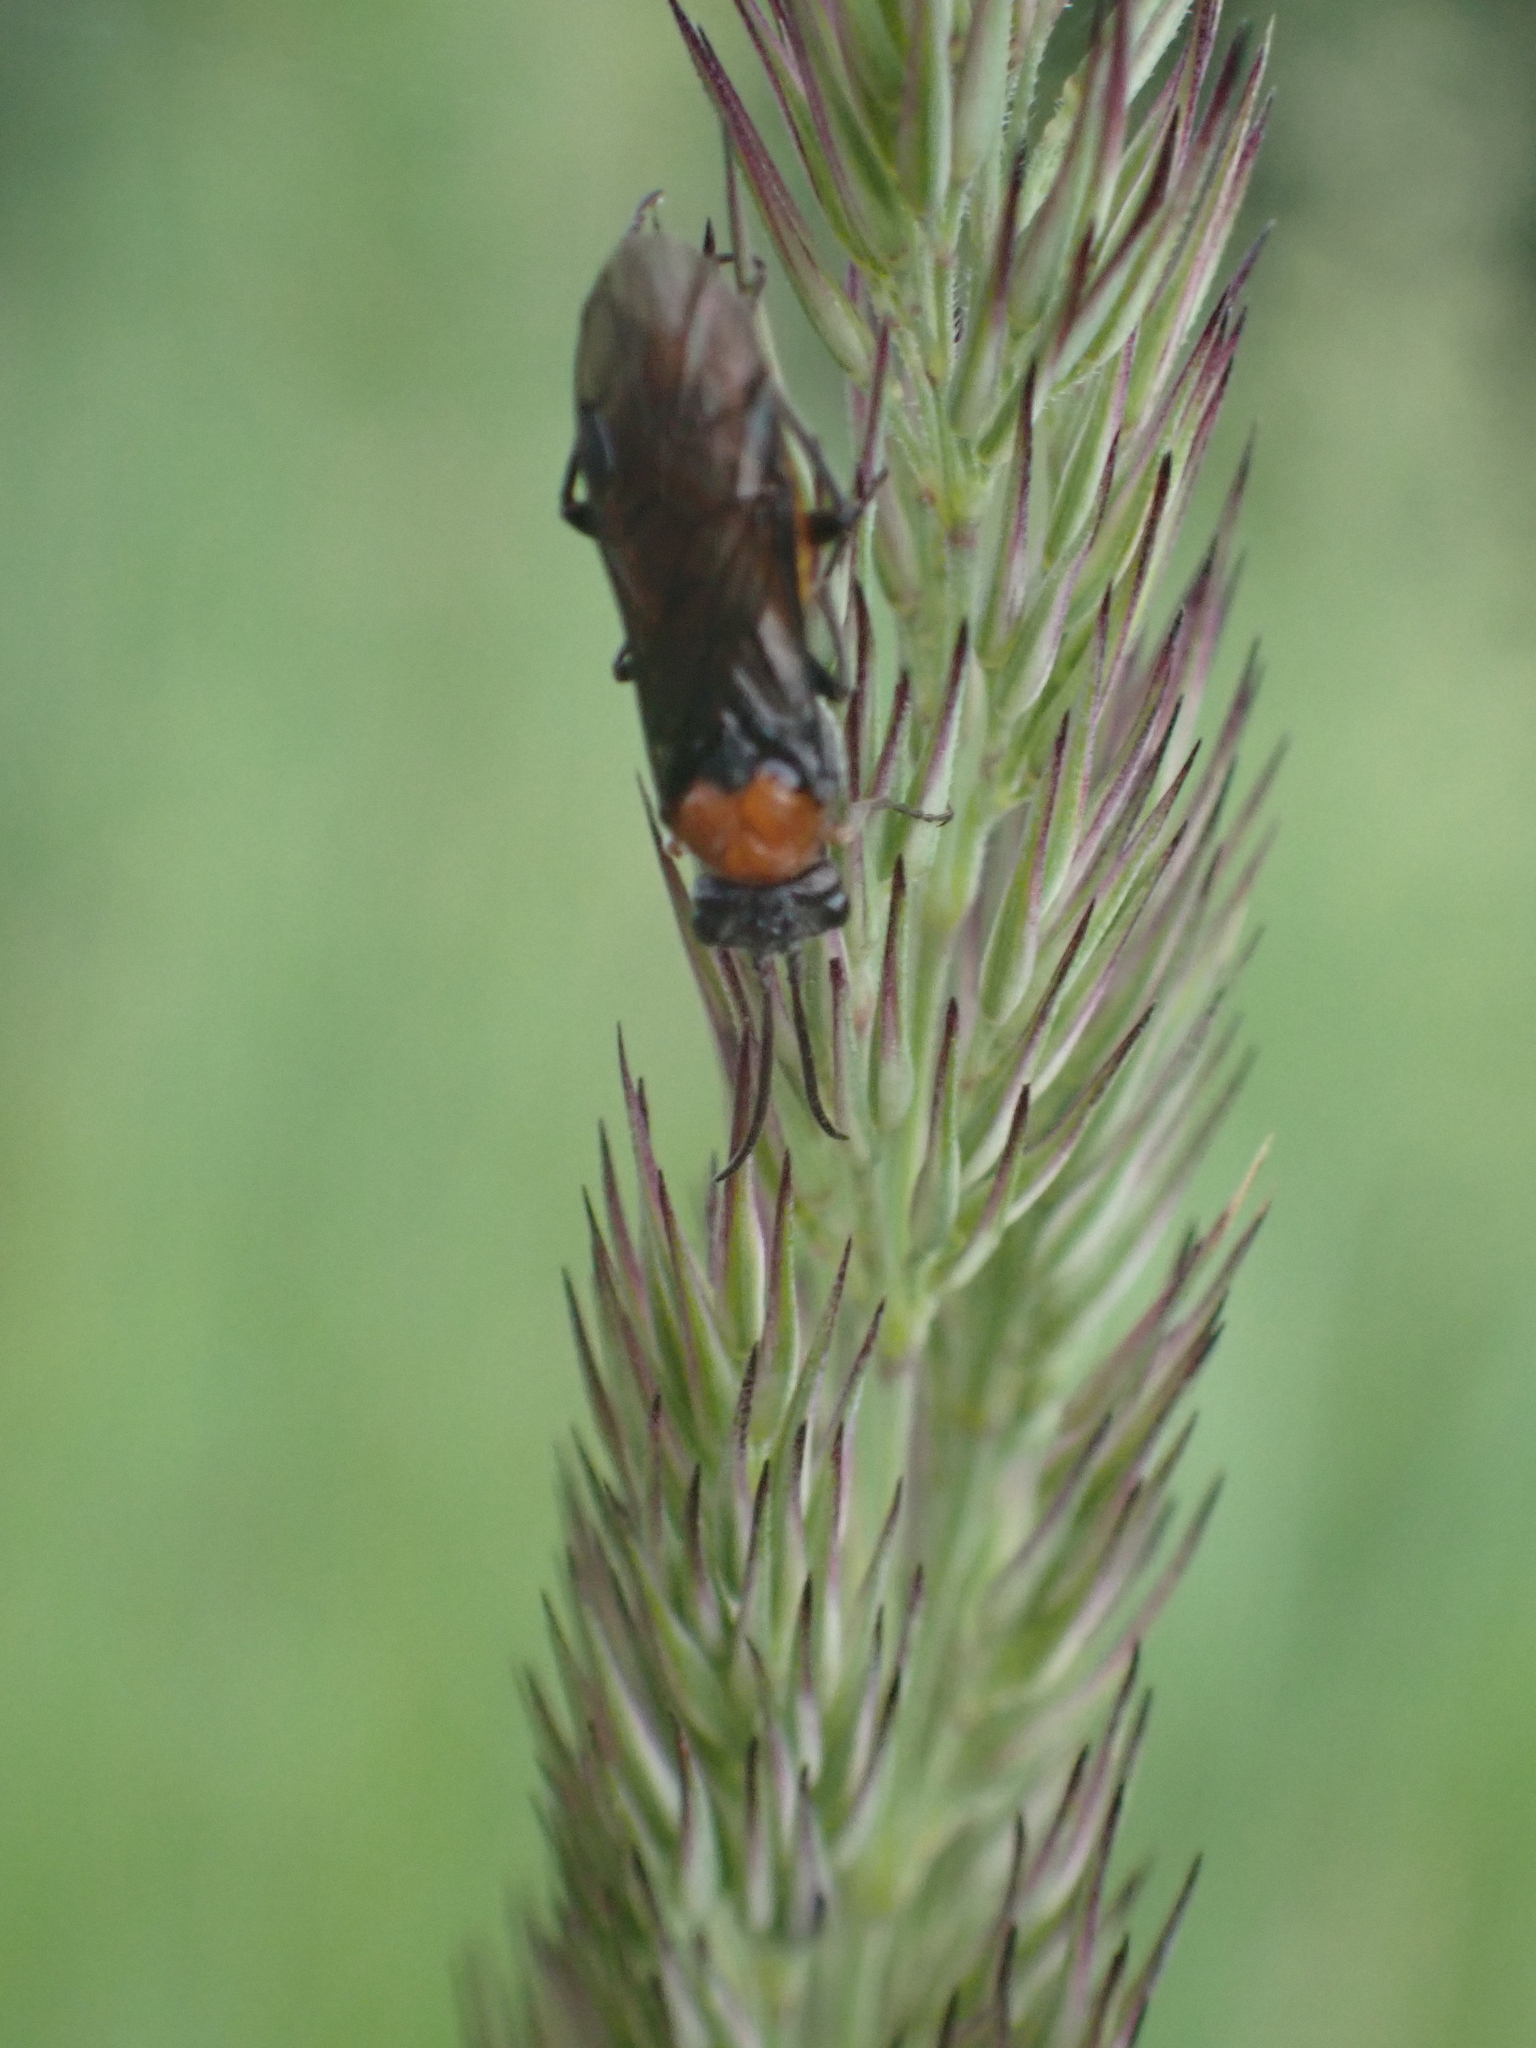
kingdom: Animalia
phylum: Arthropoda
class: Insecta
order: Hymenoptera
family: Tenthredinidae
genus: Dolerus
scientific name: Dolerus
